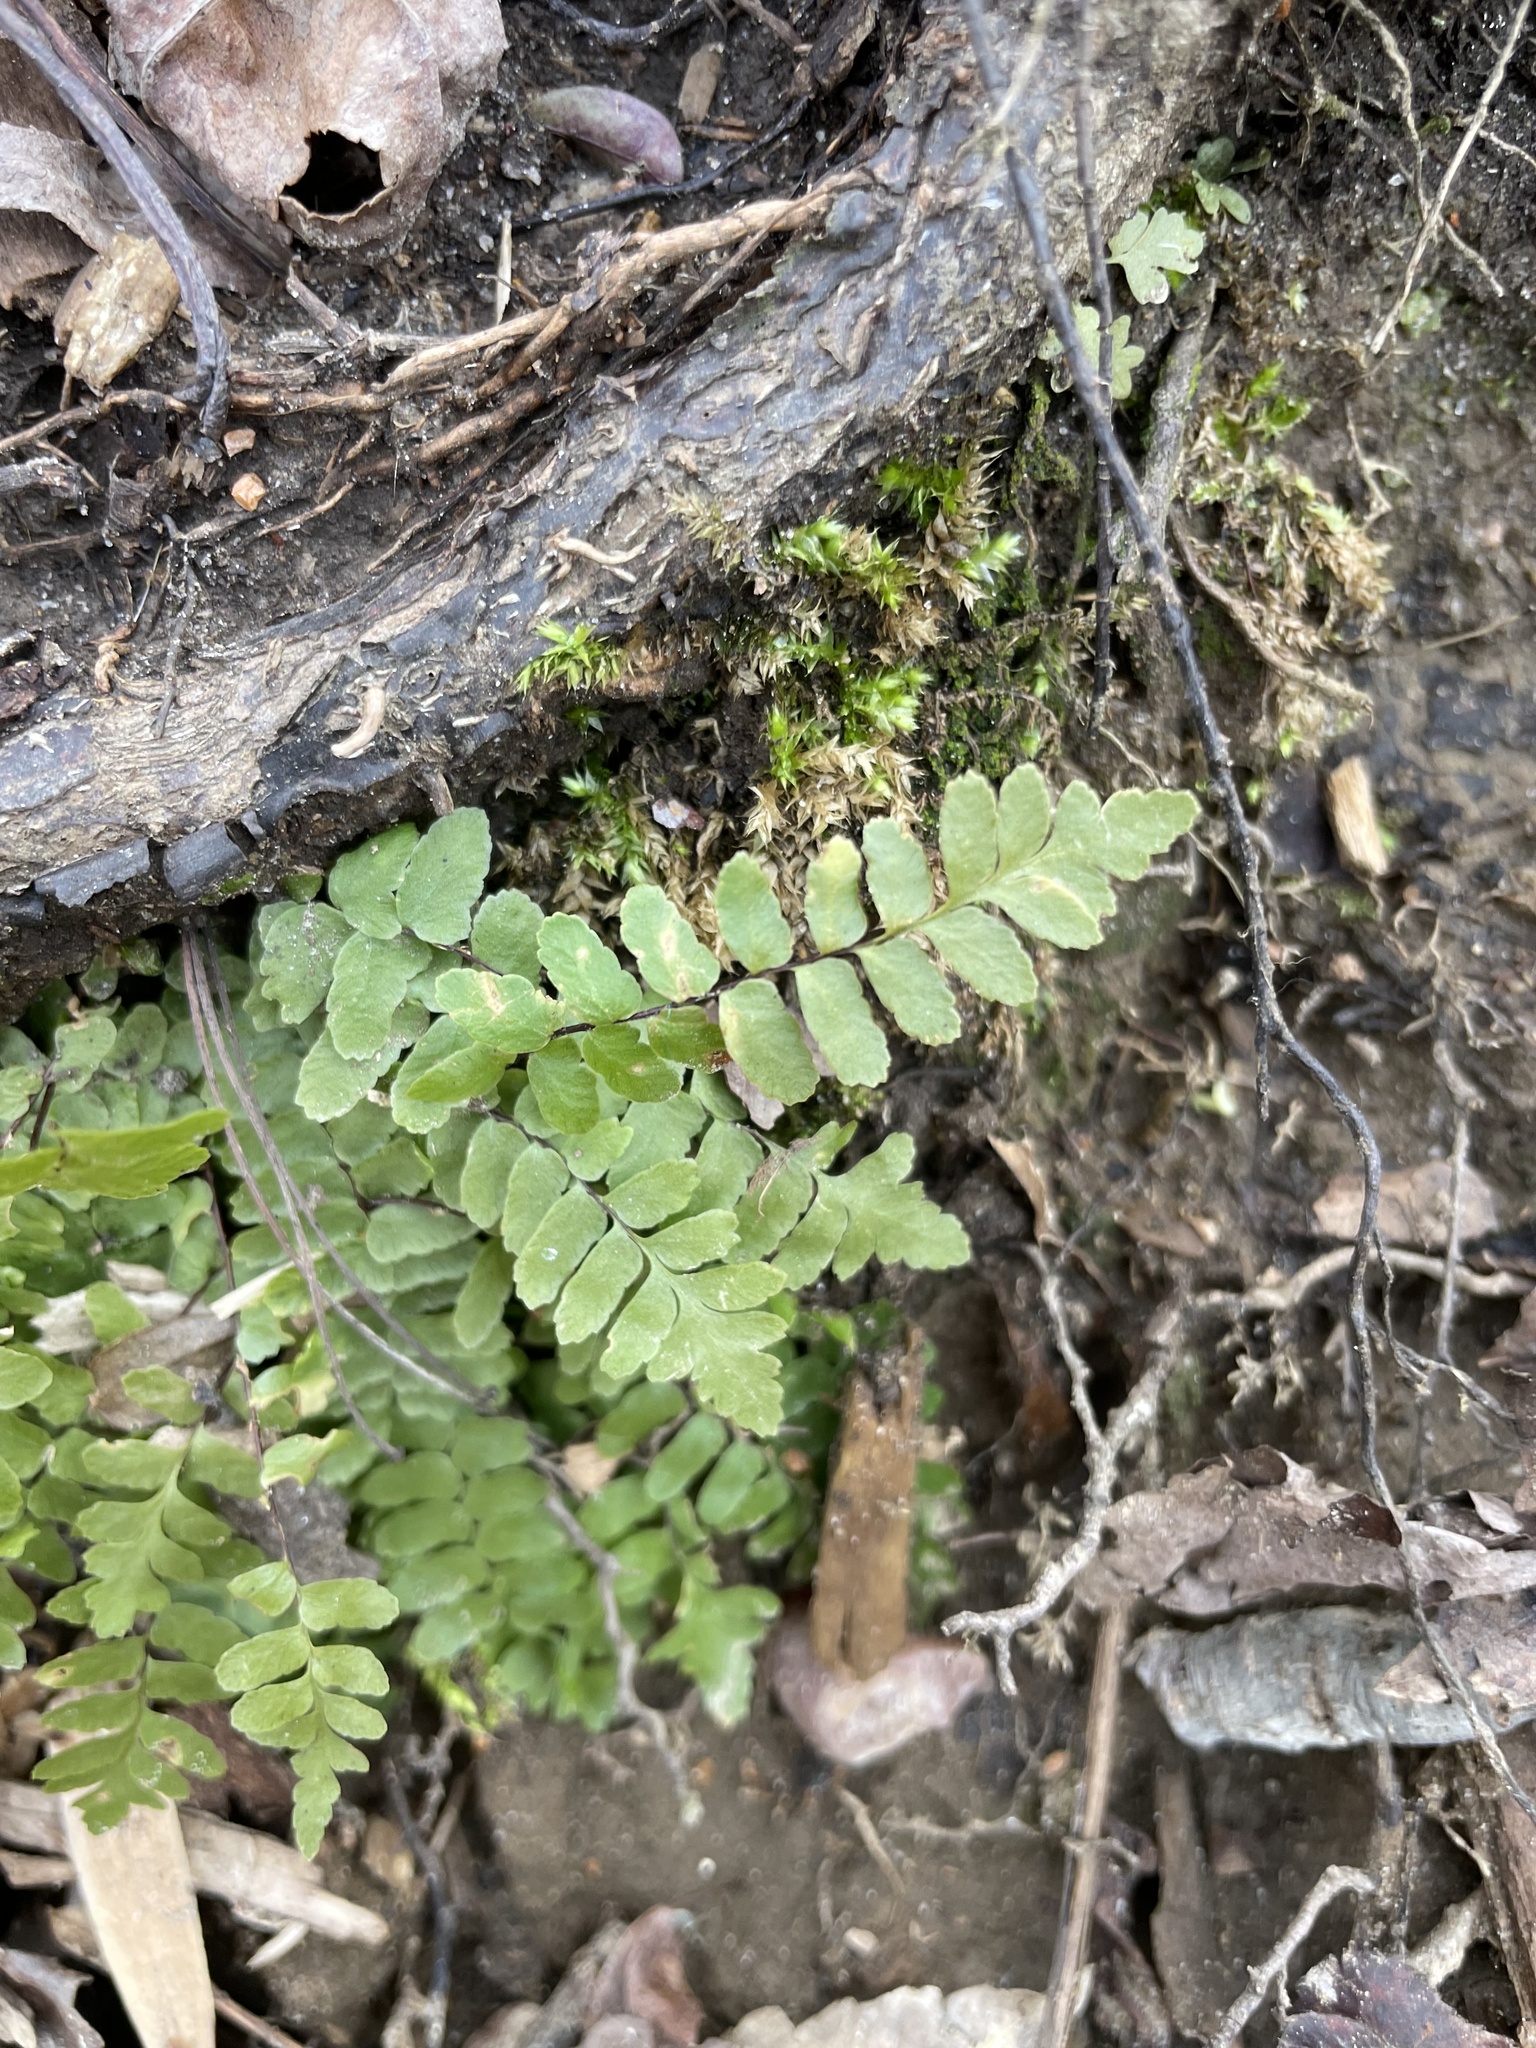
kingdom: Plantae
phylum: Tracheophyta
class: Polypodiopsida
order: Polypodiales
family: Aspleniaceae
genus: Asplenium
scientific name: Asplenium platyneuron
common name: Ebony spleenwort
